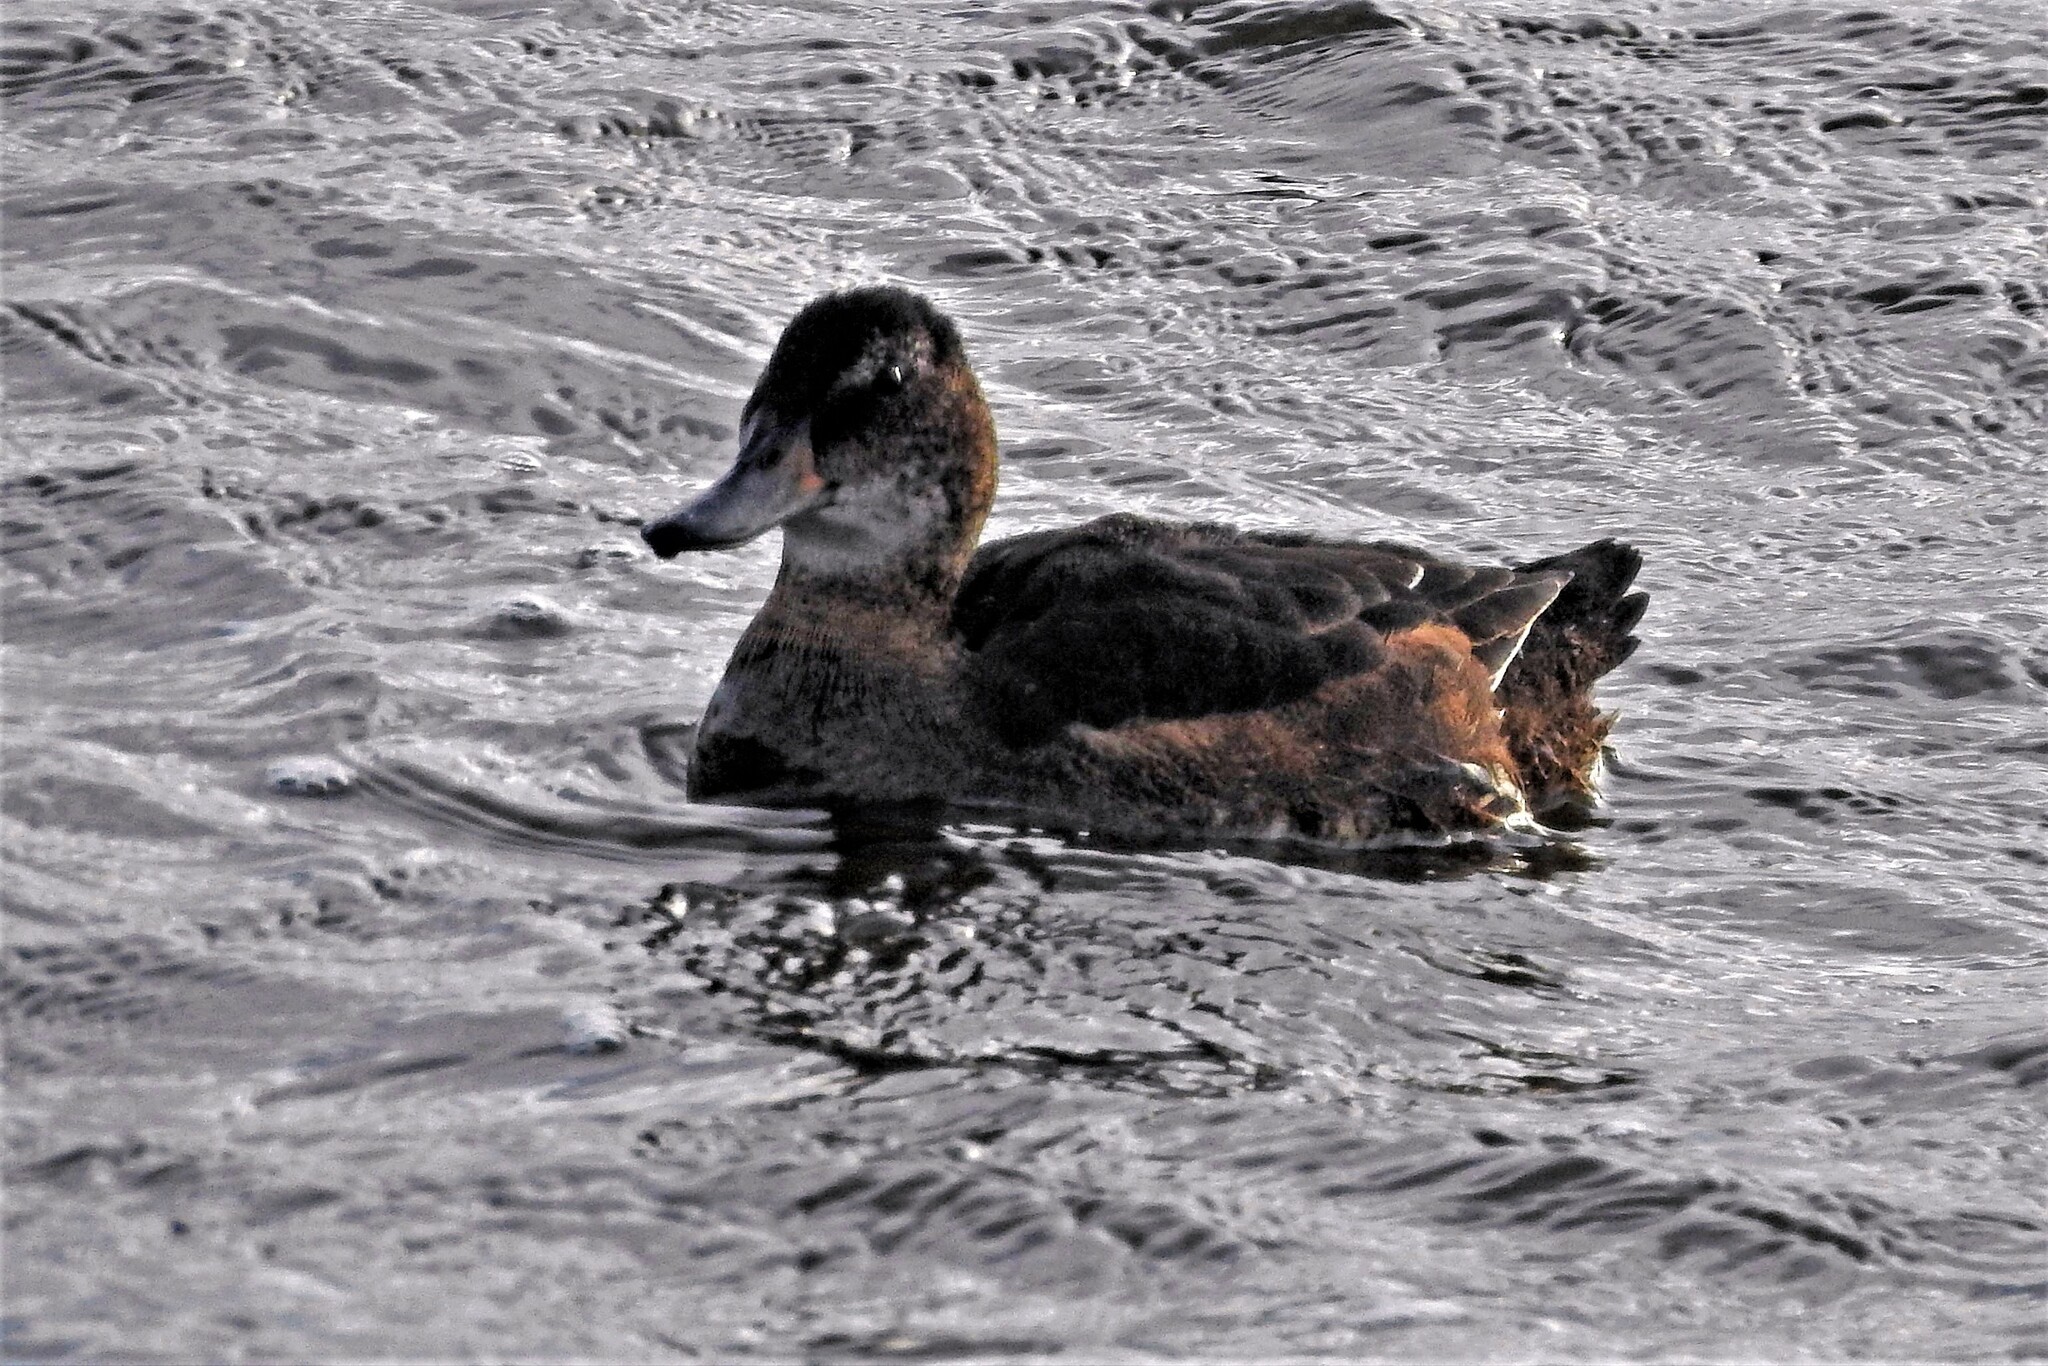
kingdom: Animalia
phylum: Chordata
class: Aves
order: Anseriformes
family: Anatidae
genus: Heteronetta
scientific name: Heteronetta atricapilla
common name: Black-headed duck
